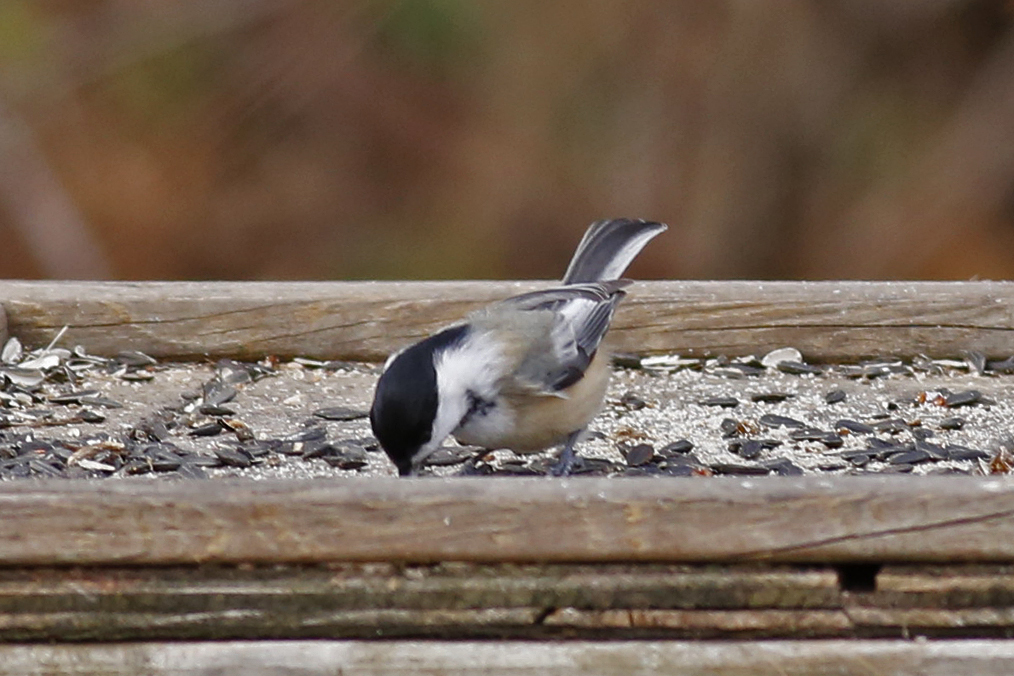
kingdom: Animalia
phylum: Chordata
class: Aves
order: Passeriformes
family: Paridae
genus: Poecile
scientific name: Poecile atricapillus
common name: Black-capped chickadee
